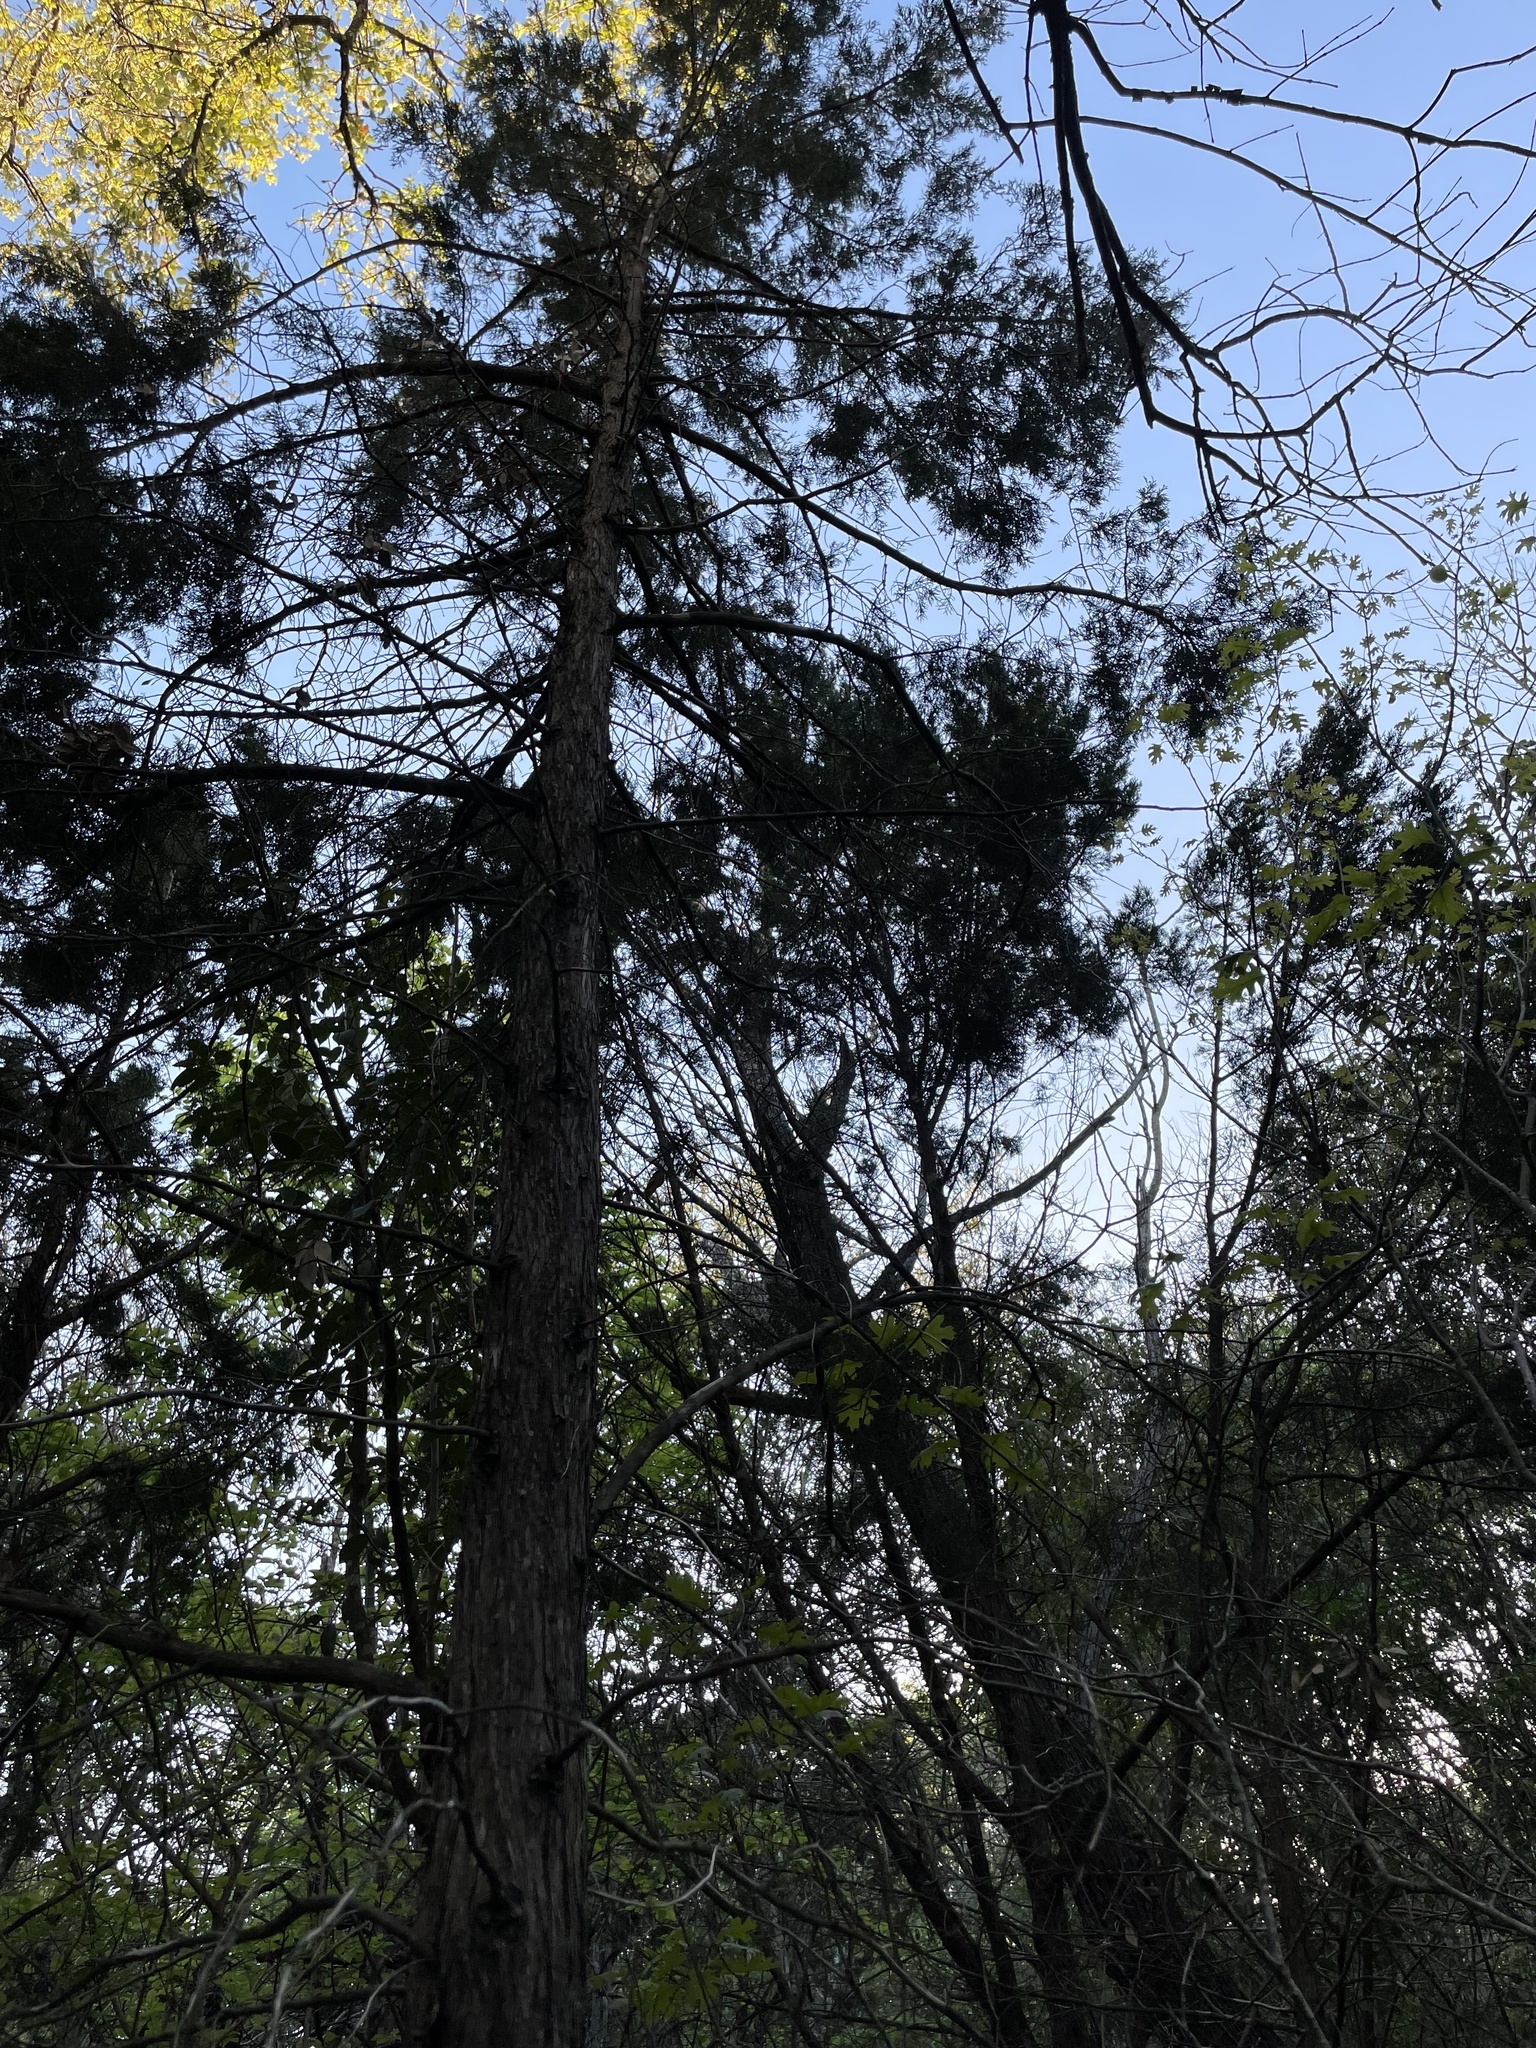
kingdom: Plantae
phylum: Tracheophyta
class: Pinopsida
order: Pinales
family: Cupressaceae
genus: Juniperus
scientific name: Juniperus virginiana
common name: Red juniper
